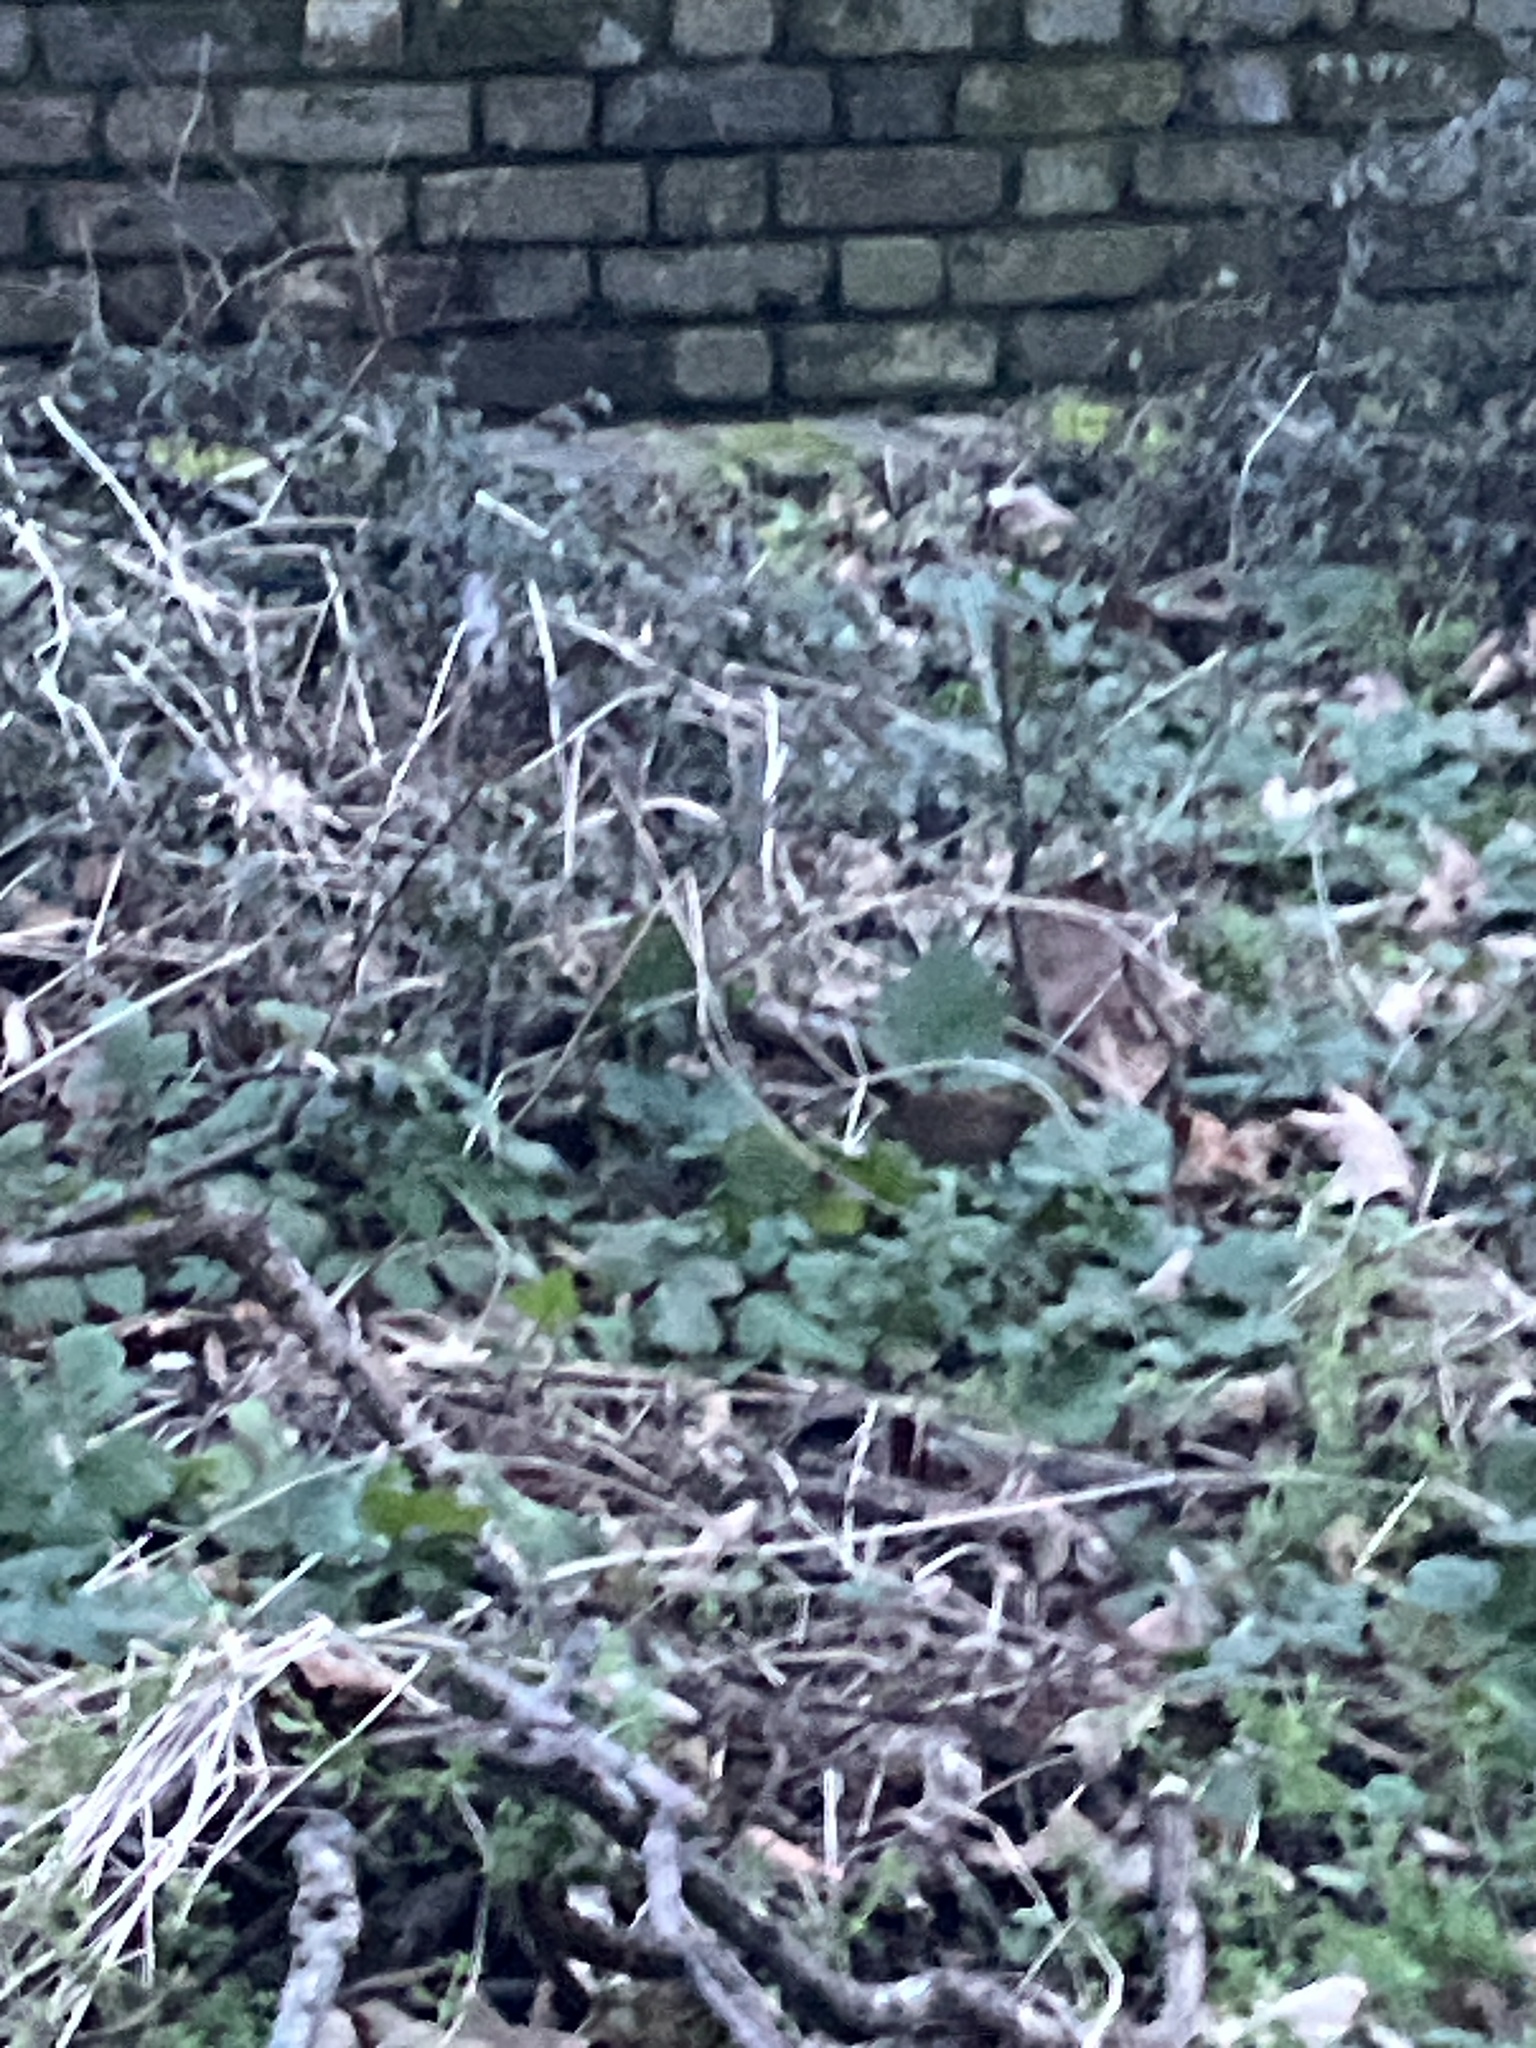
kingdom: Animalia
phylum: Chordata
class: Aves
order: Passeriformes
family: Troglodytidae
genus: Troglodytes
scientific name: Troglodytes troglodytes
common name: Eurasian wren
